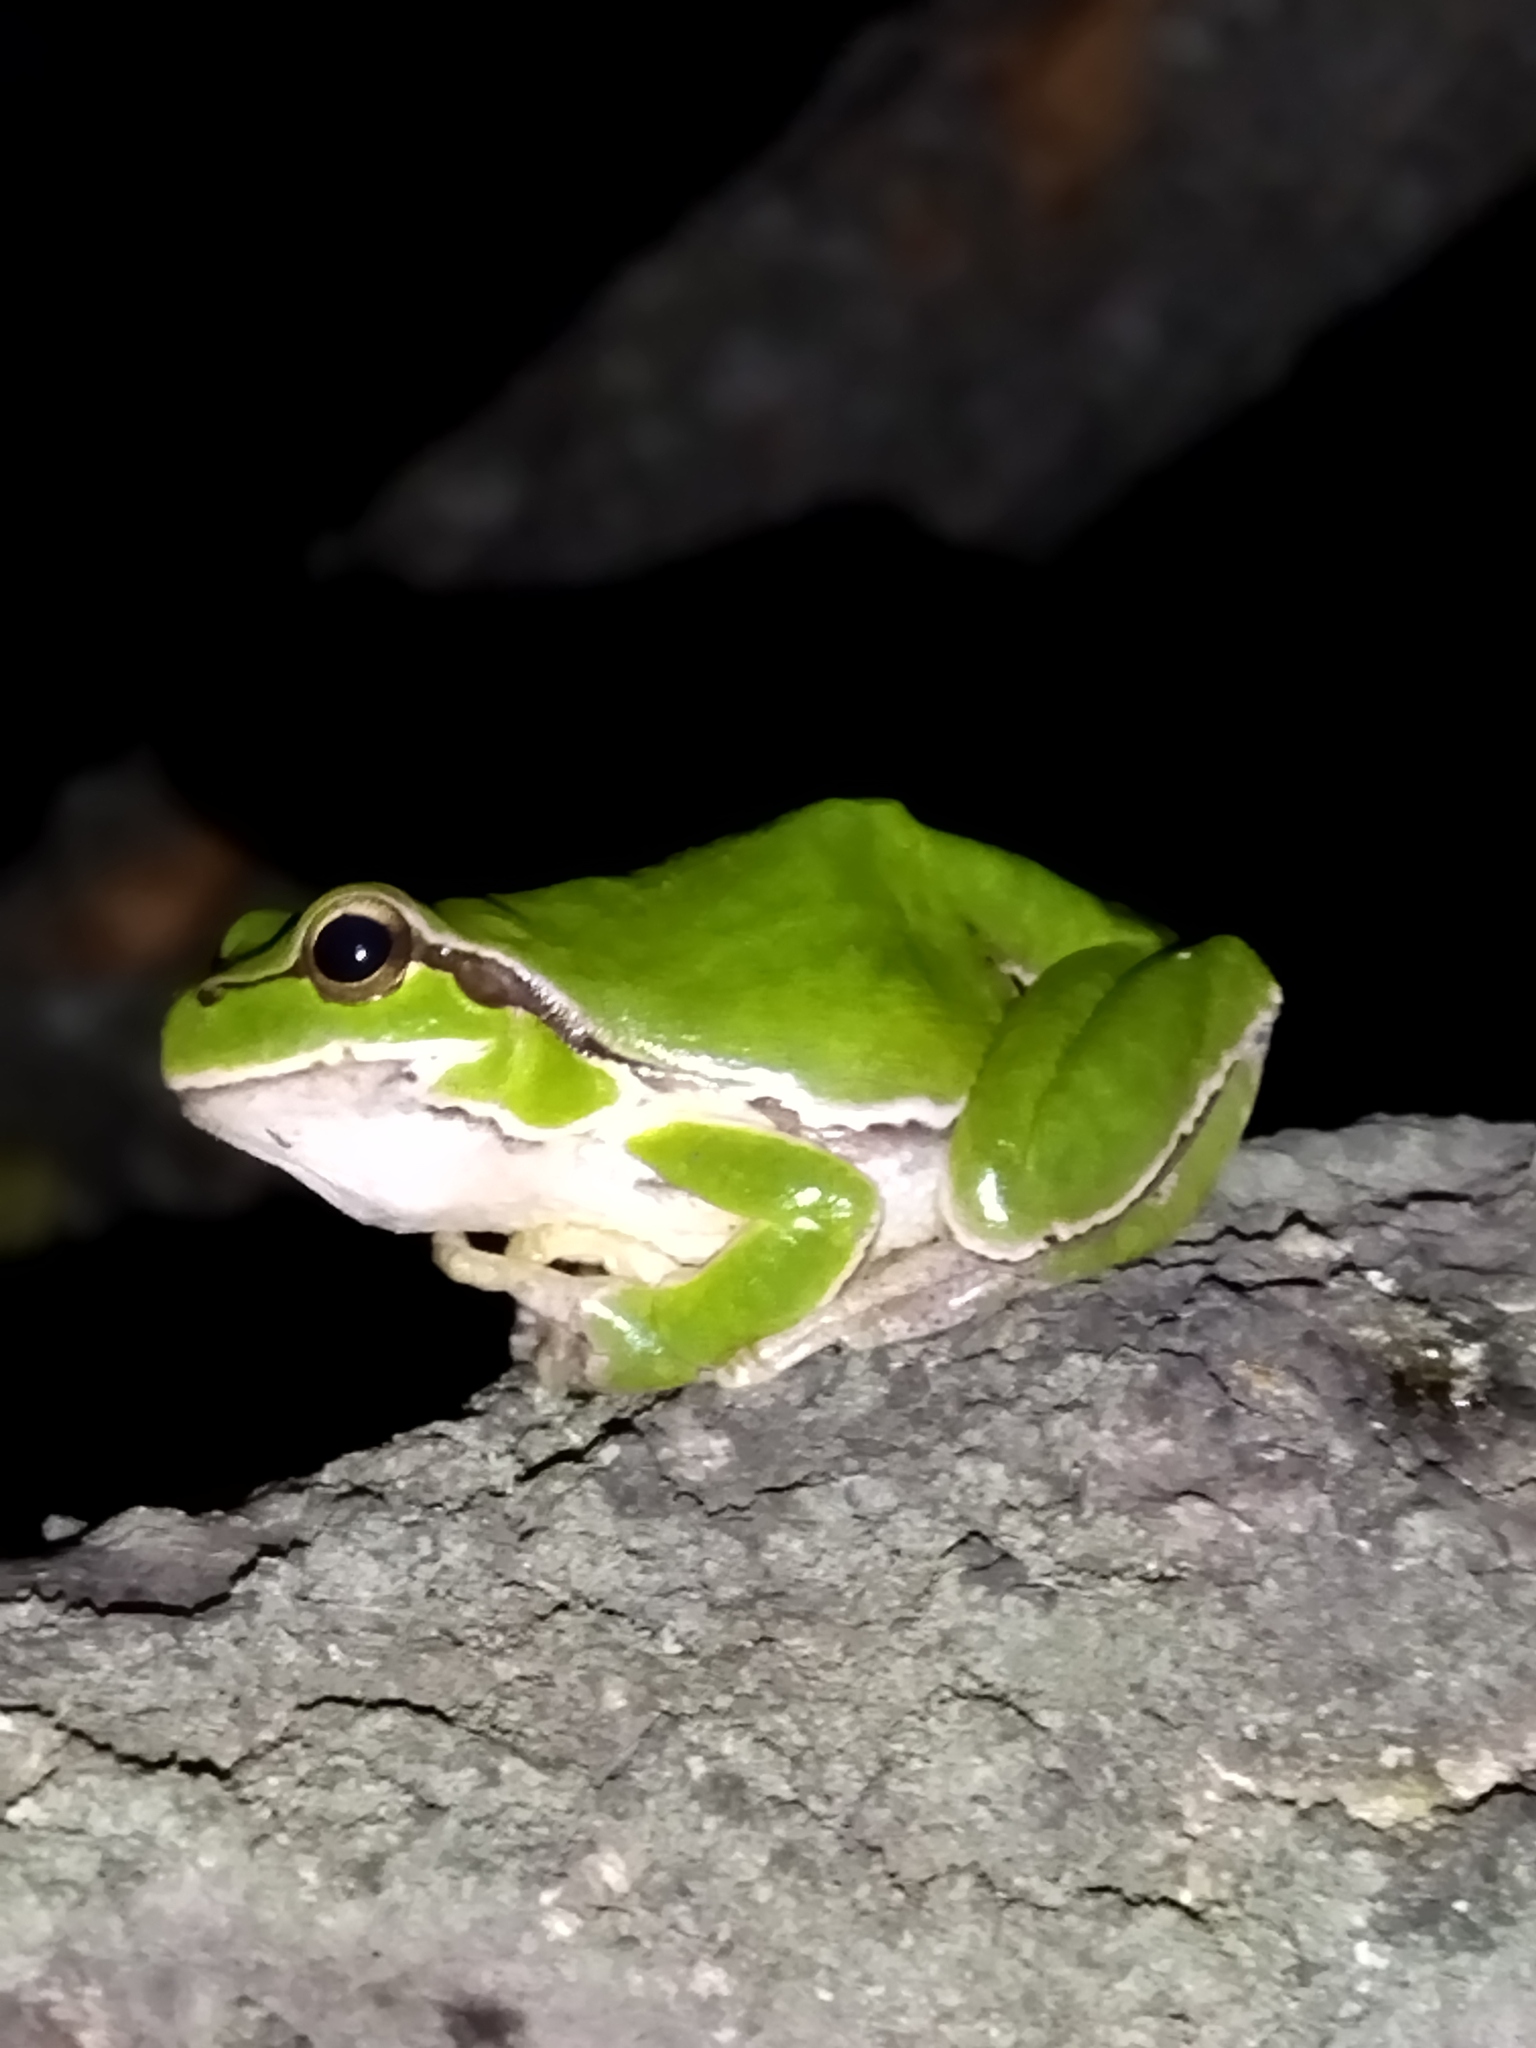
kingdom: Animalia
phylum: Chordata
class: Amphibia
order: Anura
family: Hylidae
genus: Hyla
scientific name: Hyla orientalis
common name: Caucasian treefrog
